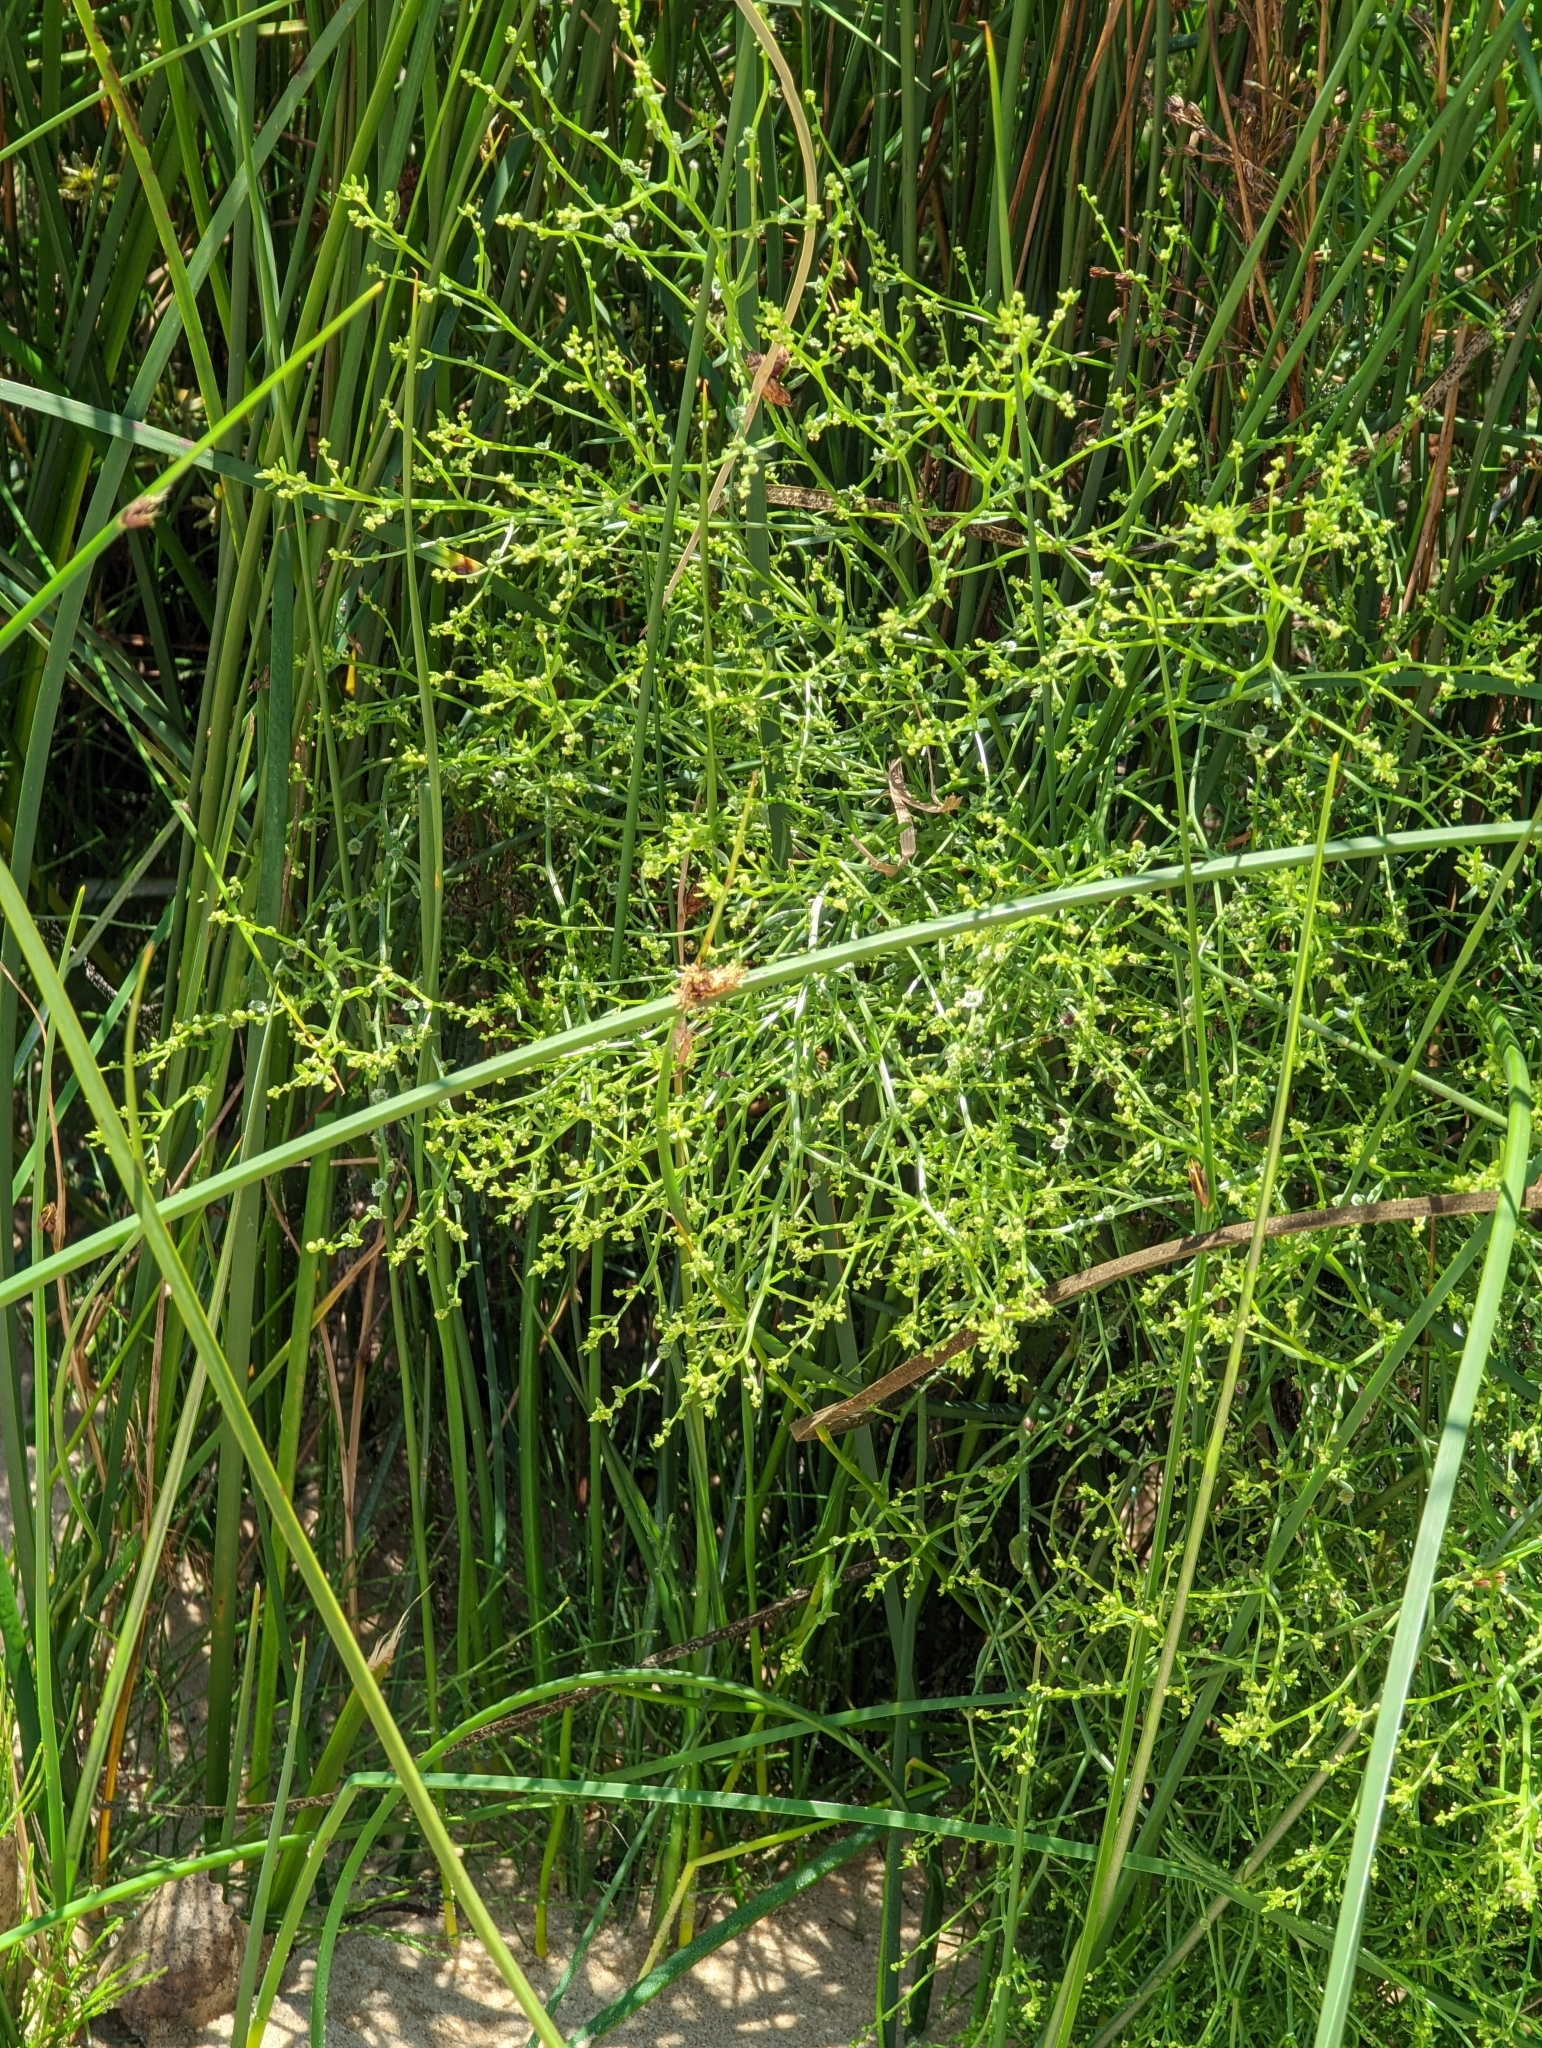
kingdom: Plantae
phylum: Tracheophyta
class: Magnoliopsida
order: Caryophyllales
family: Amaranthaceae
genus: Dysphania
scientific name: Dysphania atriplicifolia
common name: Plains tumbleweed
